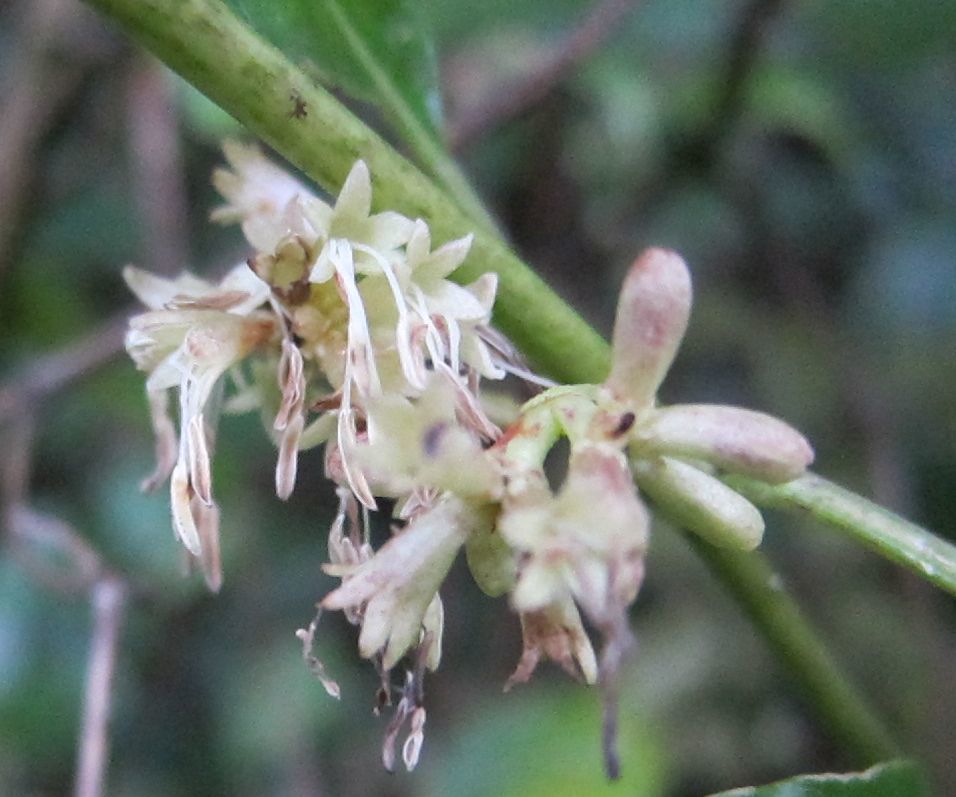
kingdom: Plantae
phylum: Tracheophyta
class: Magnoliopsida
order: Gentianales
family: Rubiaceae
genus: Coprosma
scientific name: Coprosma autumnalis
